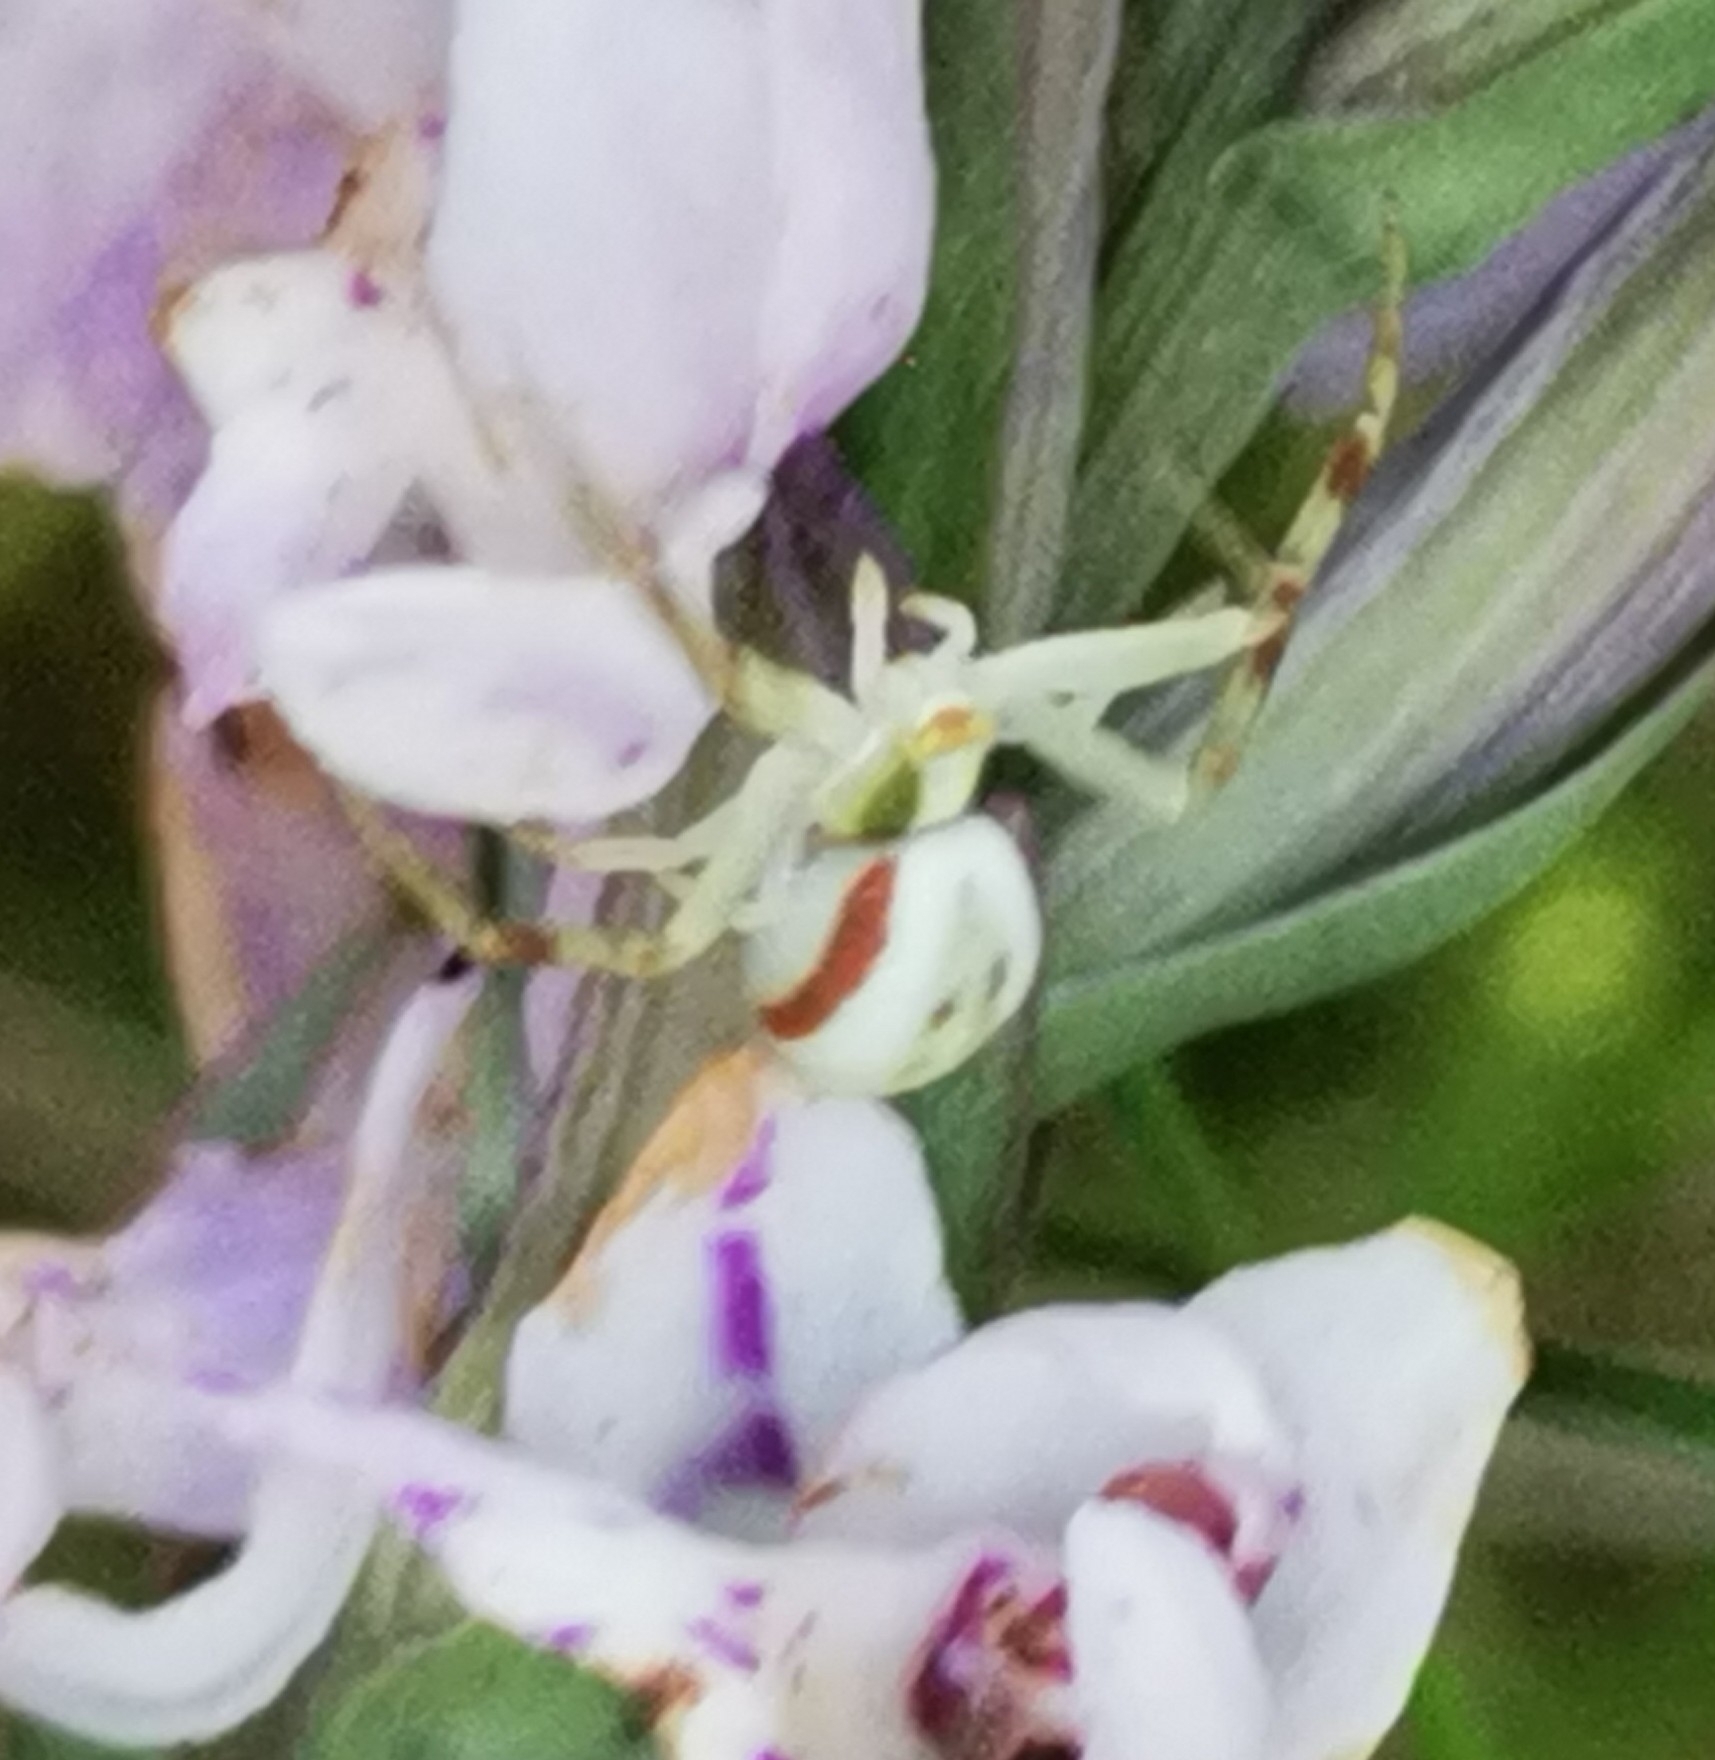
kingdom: Animalia
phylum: Arthropoda
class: Arachnida
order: Araneae
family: Thomisidae
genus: Misumena
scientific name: Misumena vatia
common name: Goldenrod crab spider
